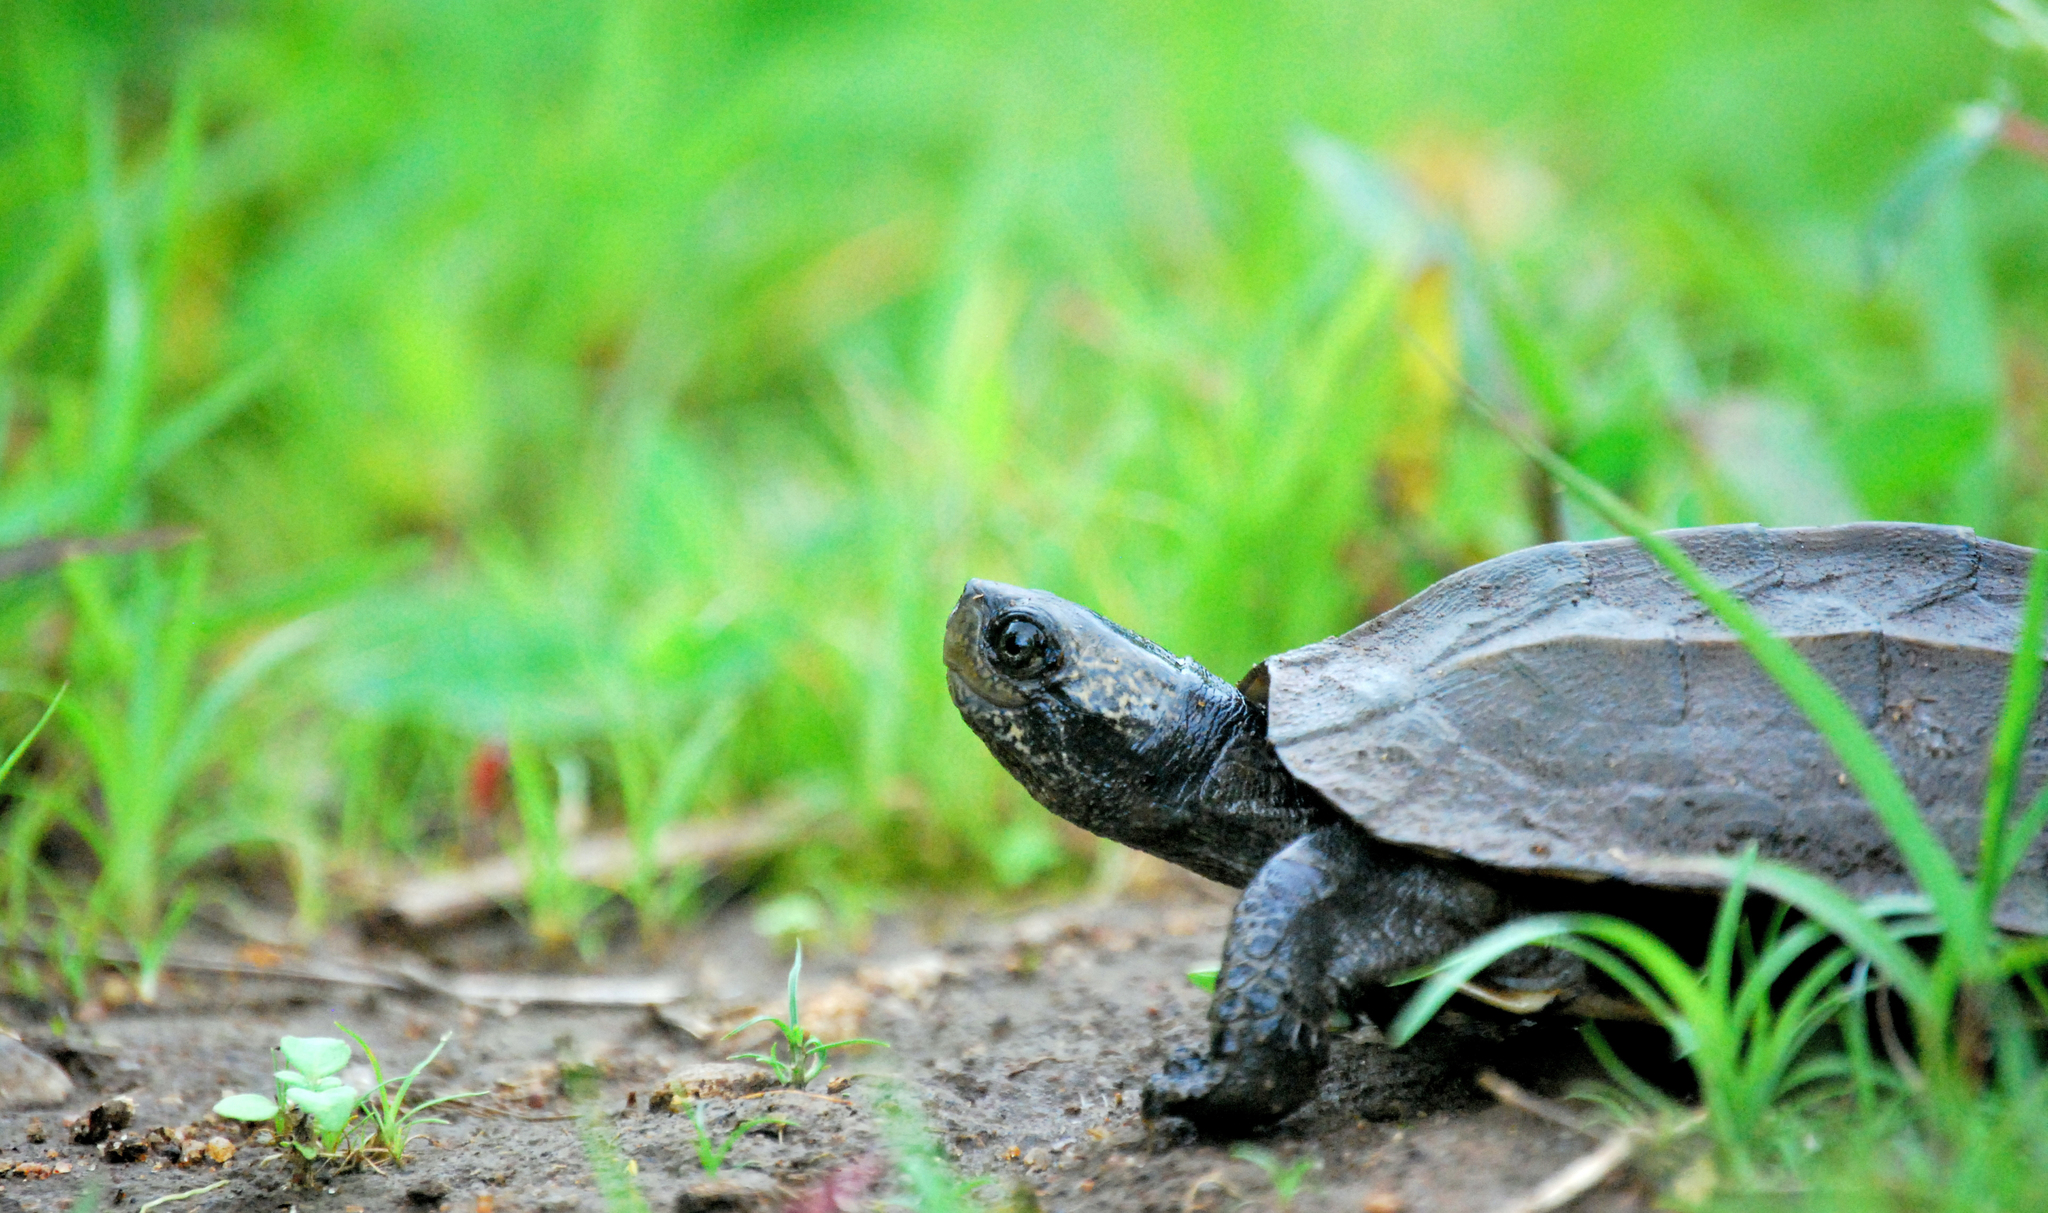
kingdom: Animalia
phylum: Chordata
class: Testudines
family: Geoemydidae
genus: Melanochelys
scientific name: Melanochelys trijuga
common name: Indian black turtle
